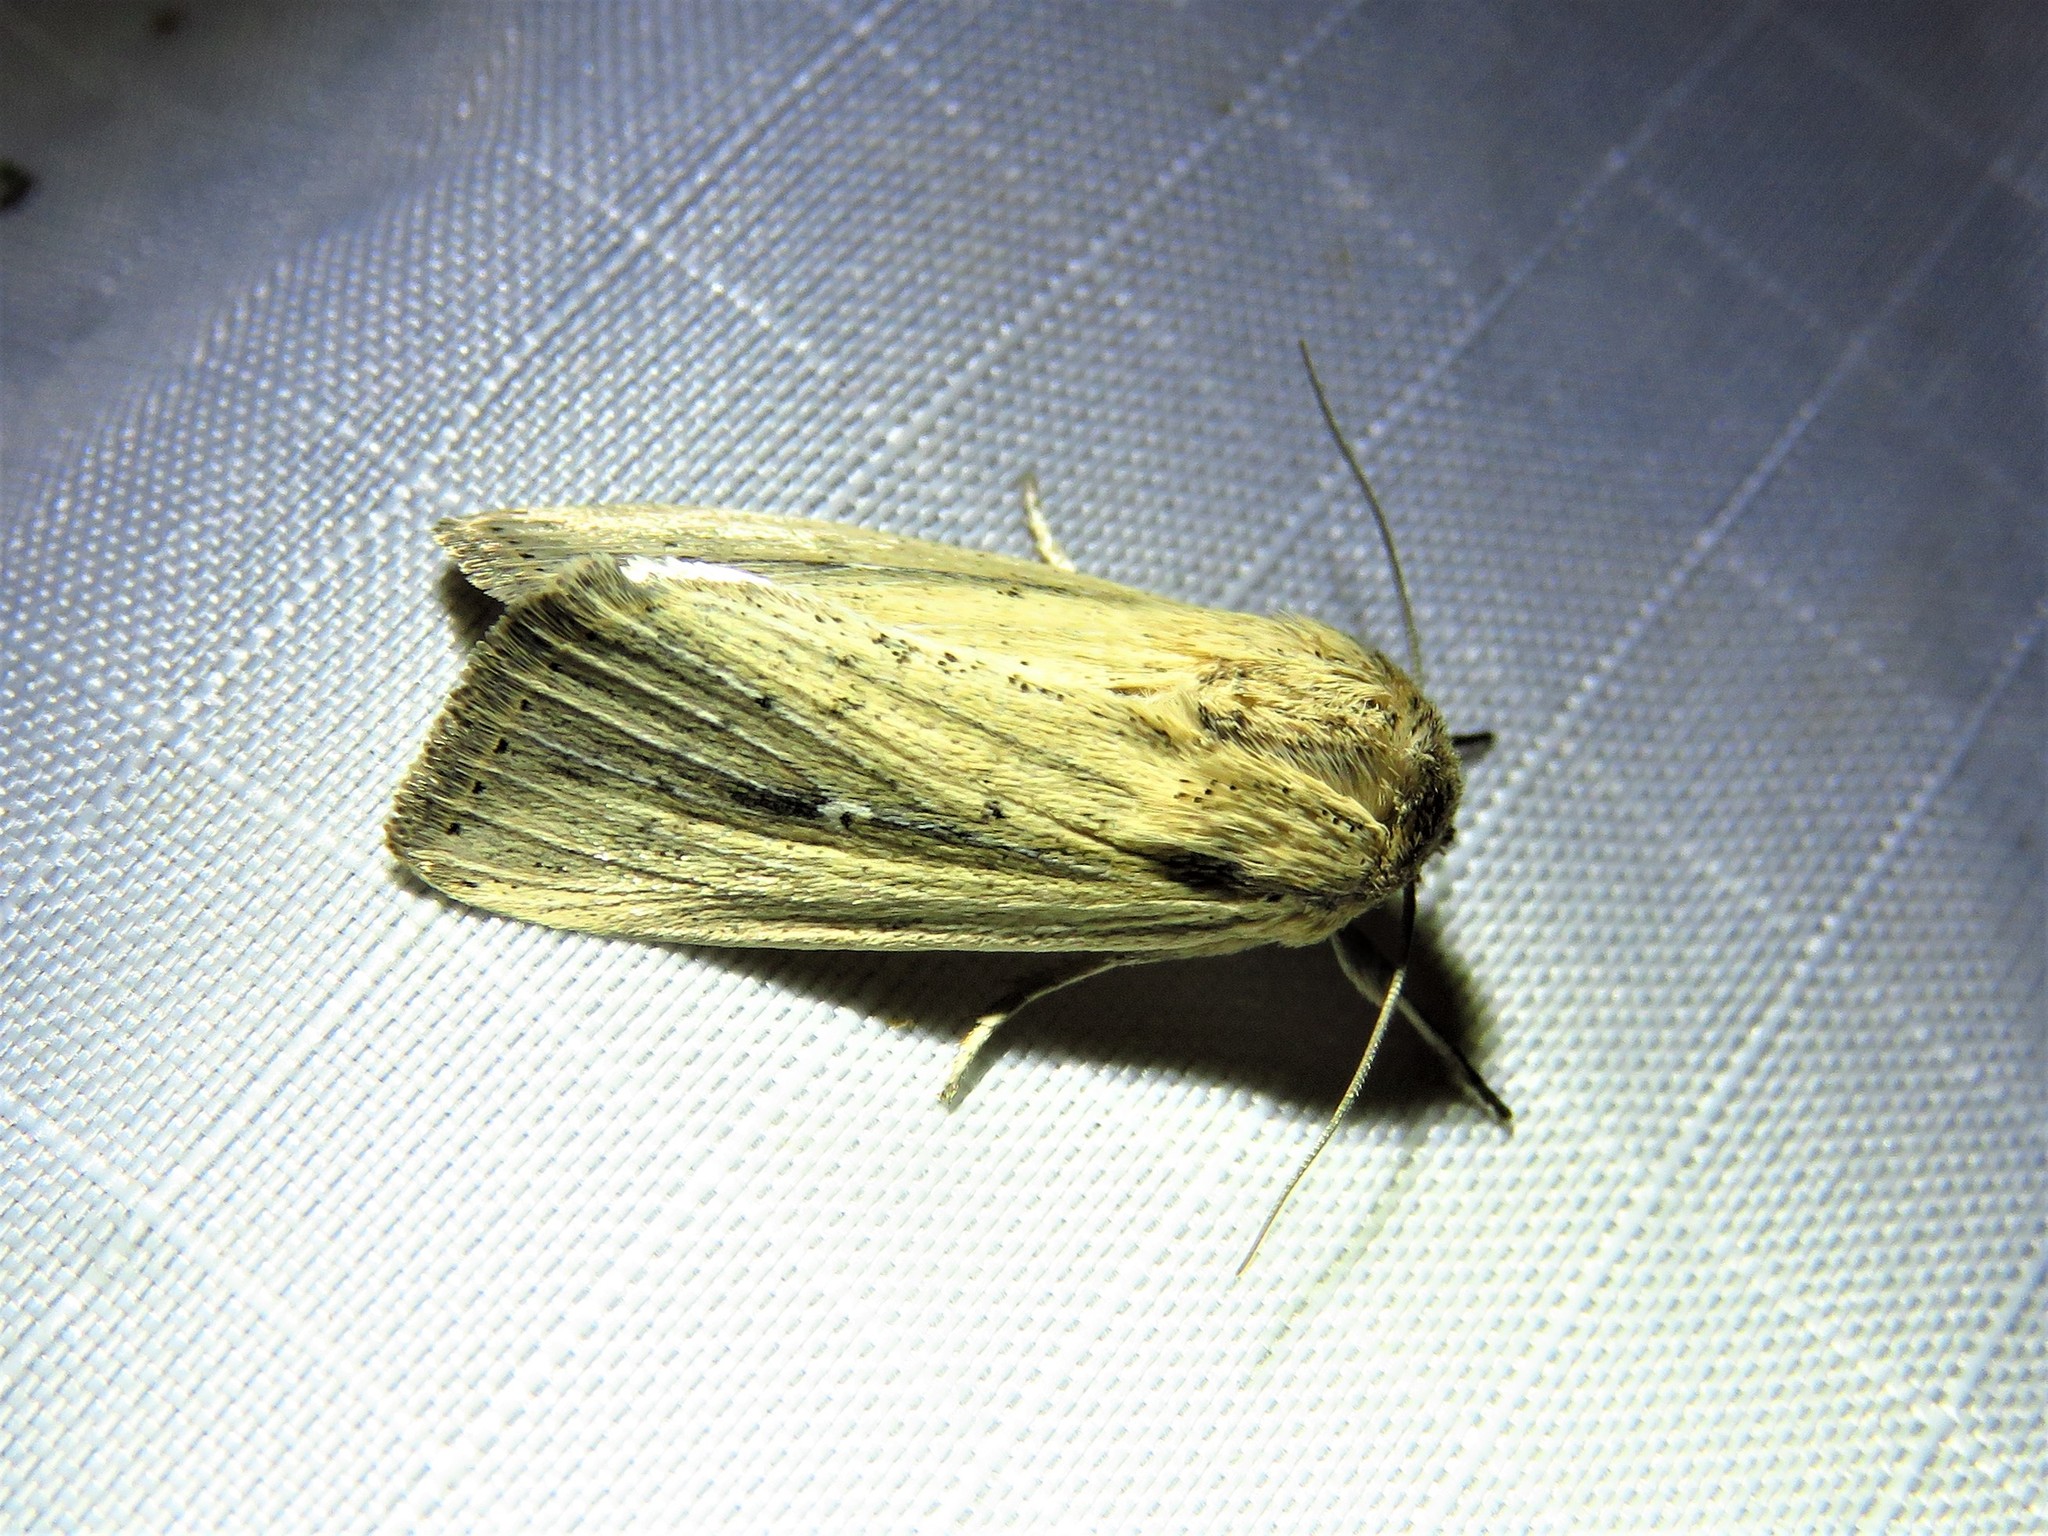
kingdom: Animalia
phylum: Arthropoda
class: Insecta
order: Lepidoptera
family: Noctuidae
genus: Leucania
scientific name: Leucania incognita
